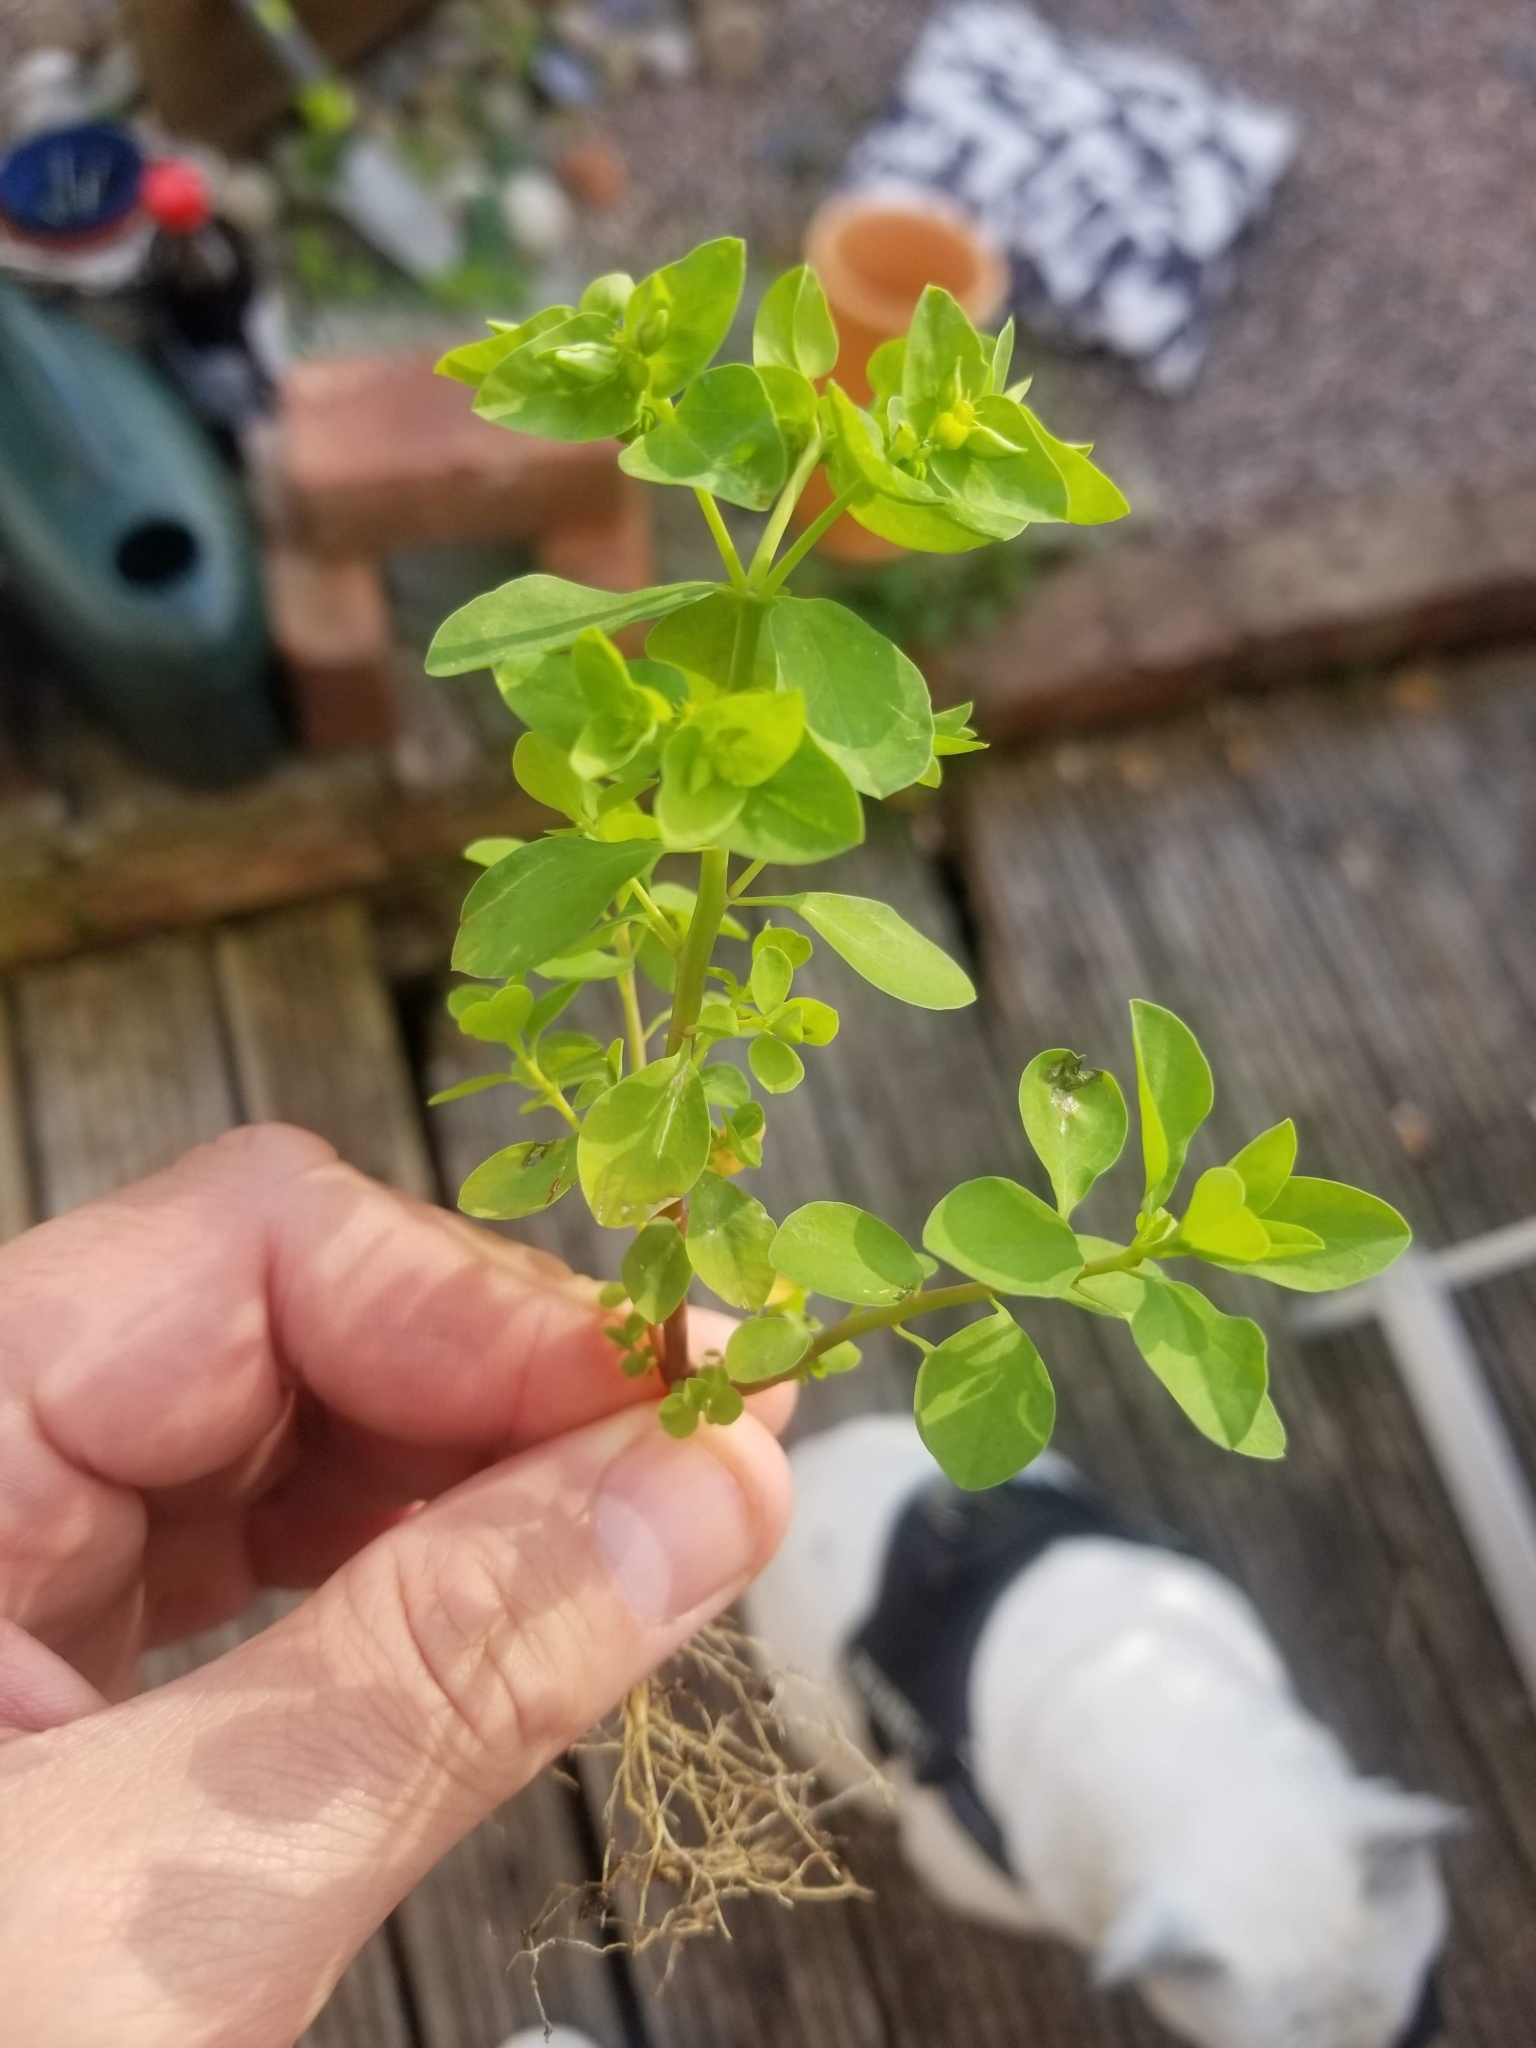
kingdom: Plantae
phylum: Tracheophyta
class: Magnoliopsida
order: Malpighiales
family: Euphorbiaceae
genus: Euphorbia
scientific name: Euphorbia peplus
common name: Petty spurge
